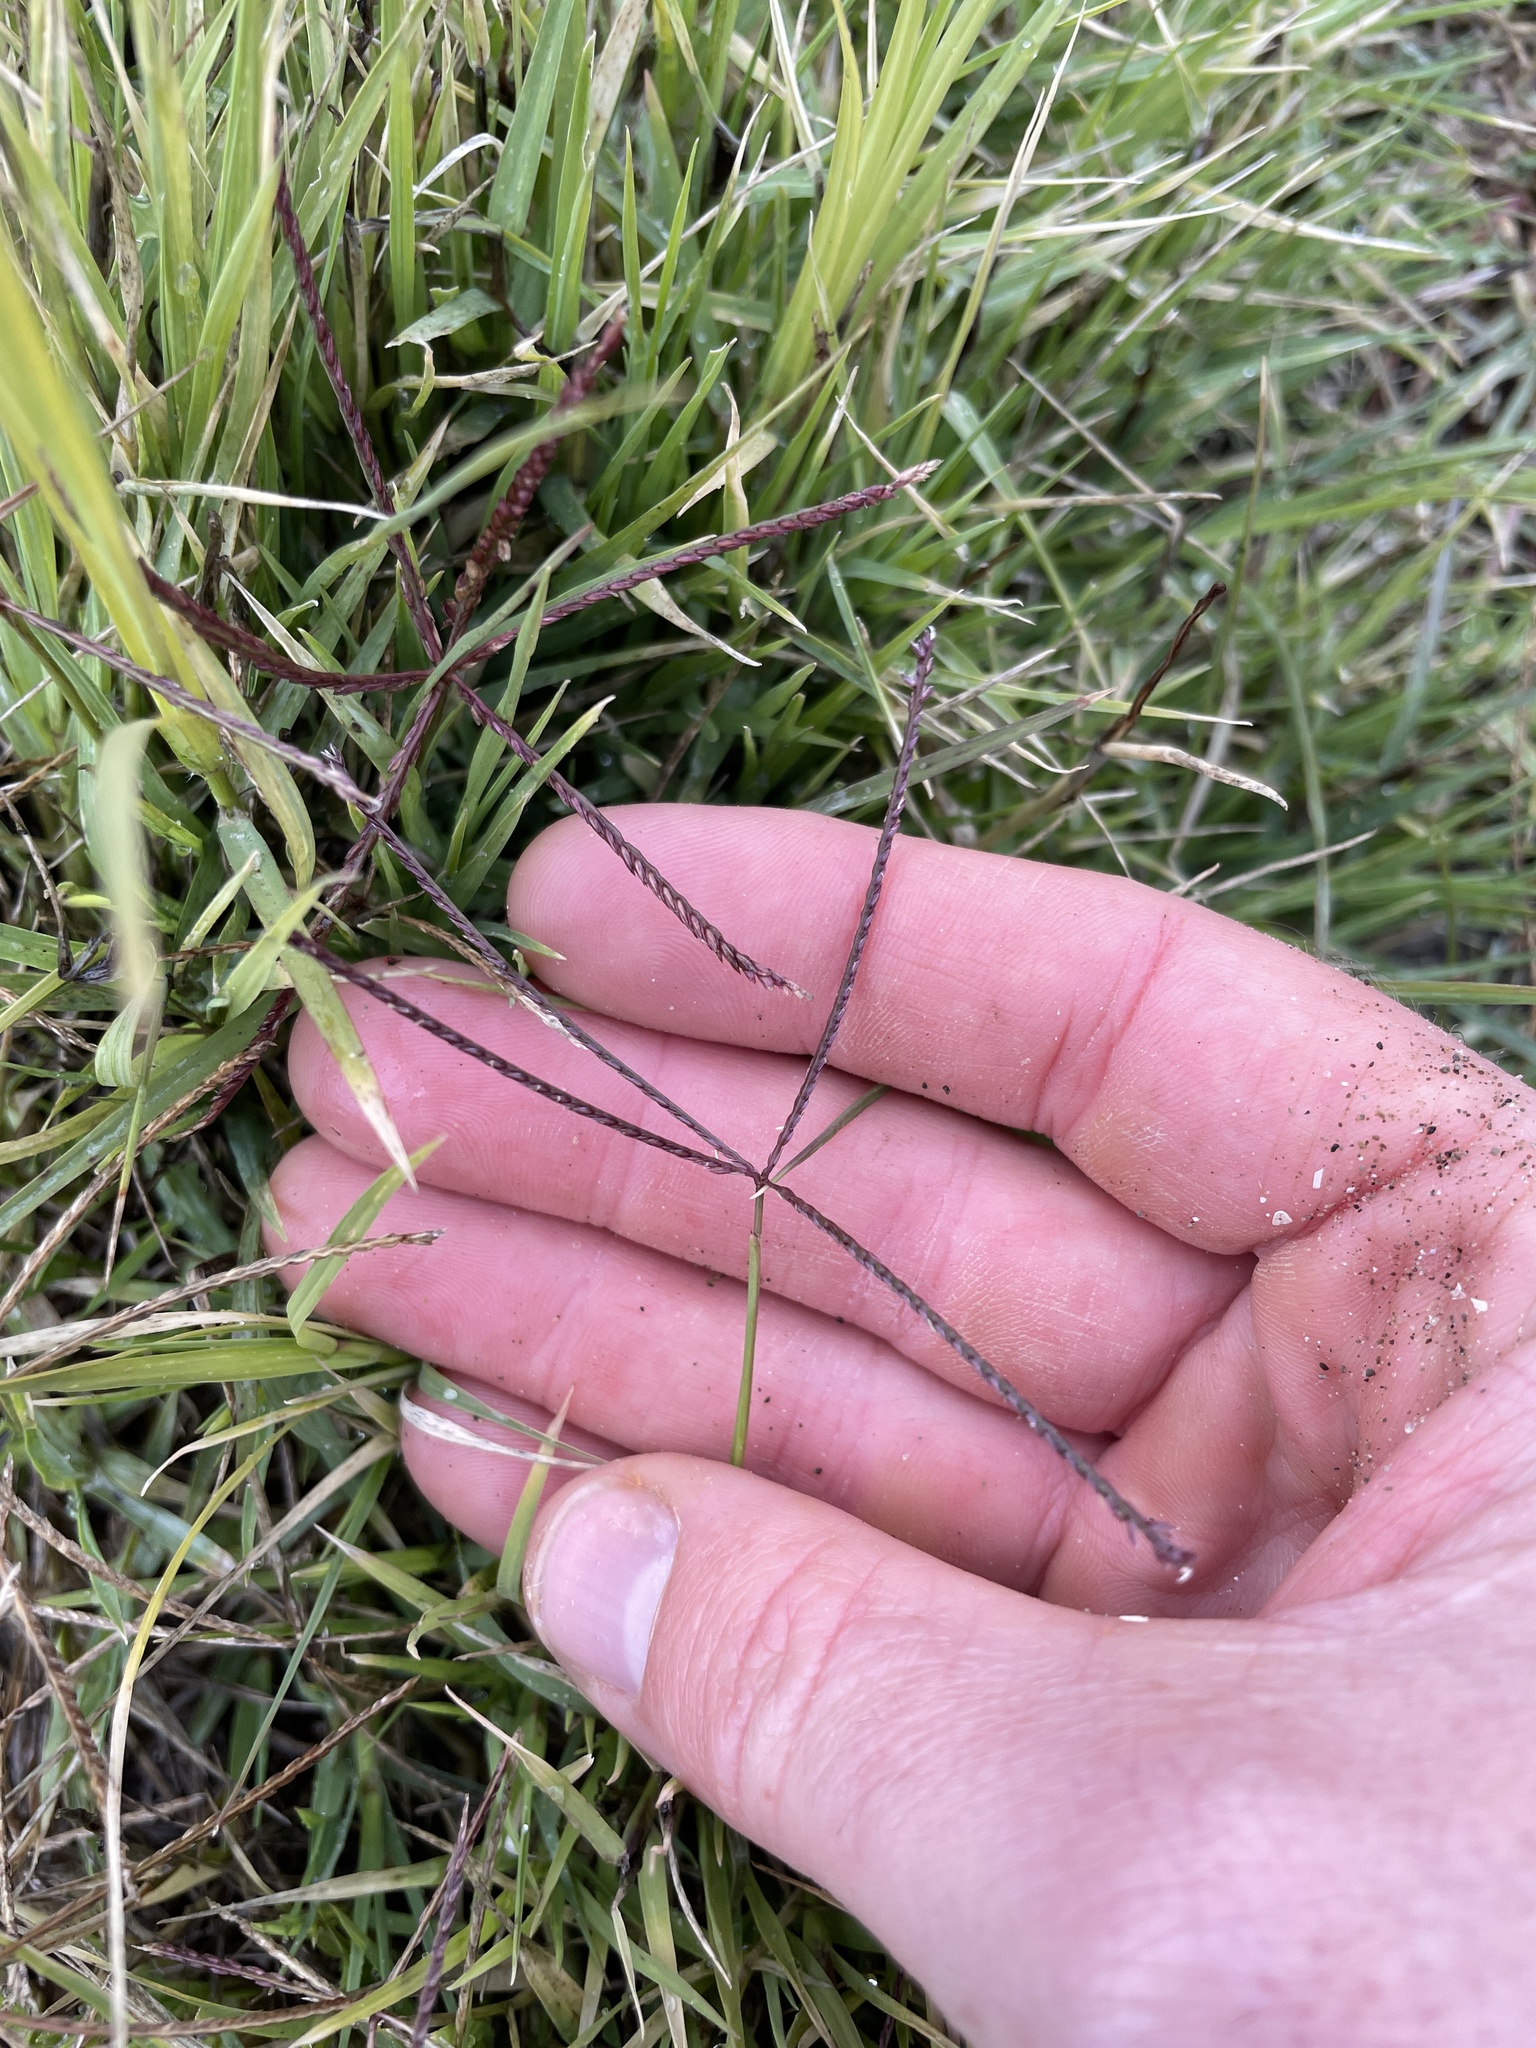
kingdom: Fungi
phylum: Basidiomycota
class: Ustilaginomycetes
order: Ustilaginales
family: Ustilaginaceae
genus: Ustilago
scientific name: Ustilago cynodontis
